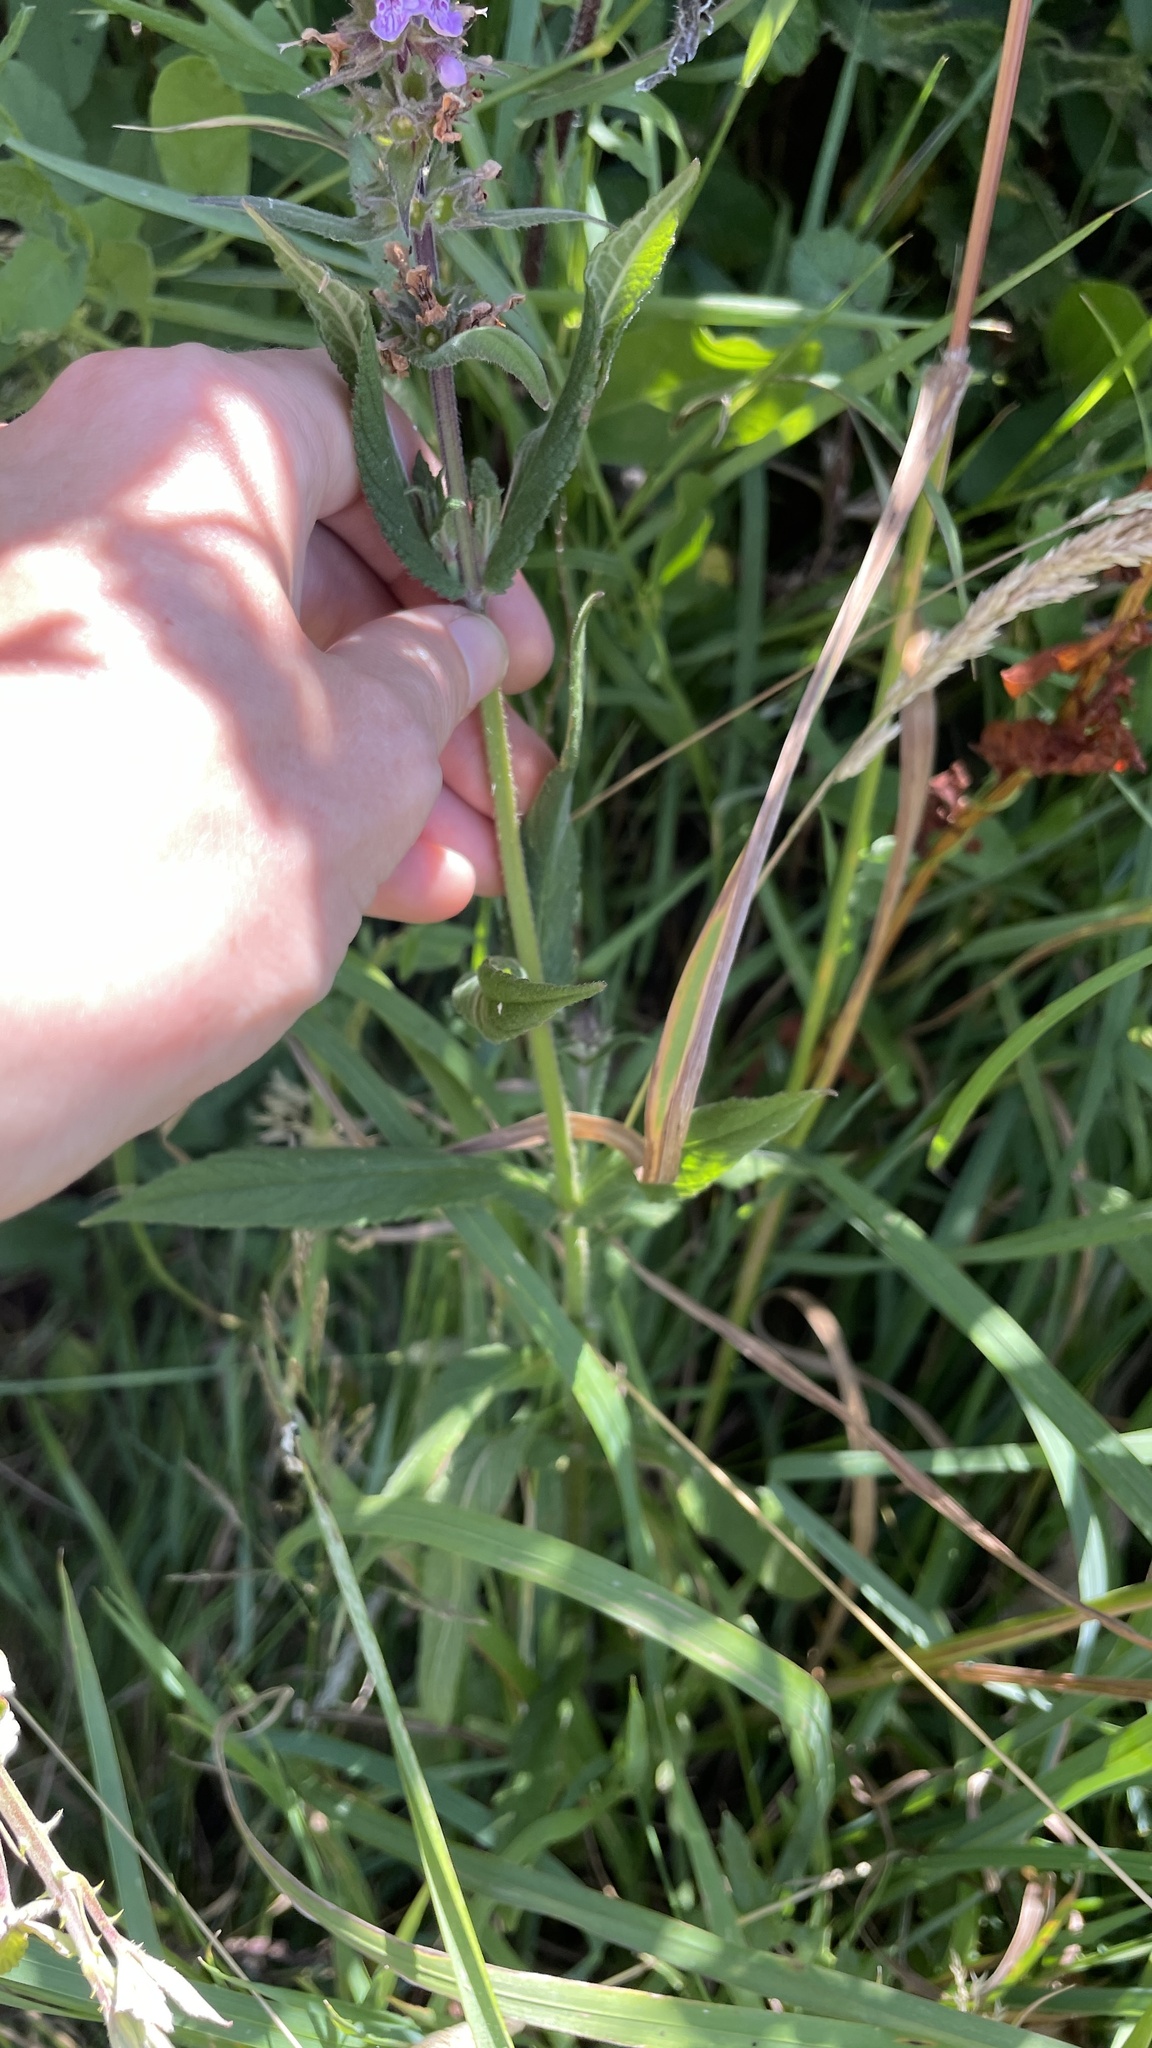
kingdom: Plantae
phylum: Tracheophyta
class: Magnoliopsida
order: Lamiales
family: Lamiaceae
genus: Stachys
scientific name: Stachys palustris
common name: Marsh woundwort
